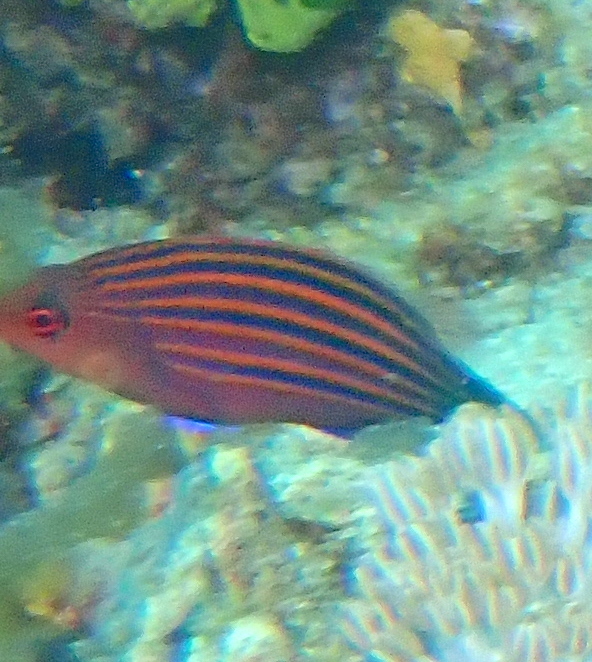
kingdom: Animalia
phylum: Chordata
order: Perciformes
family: Labridae
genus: Pseudocheilinus
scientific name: Pseudocheilinus hexataenia
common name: Sixline wrasse
